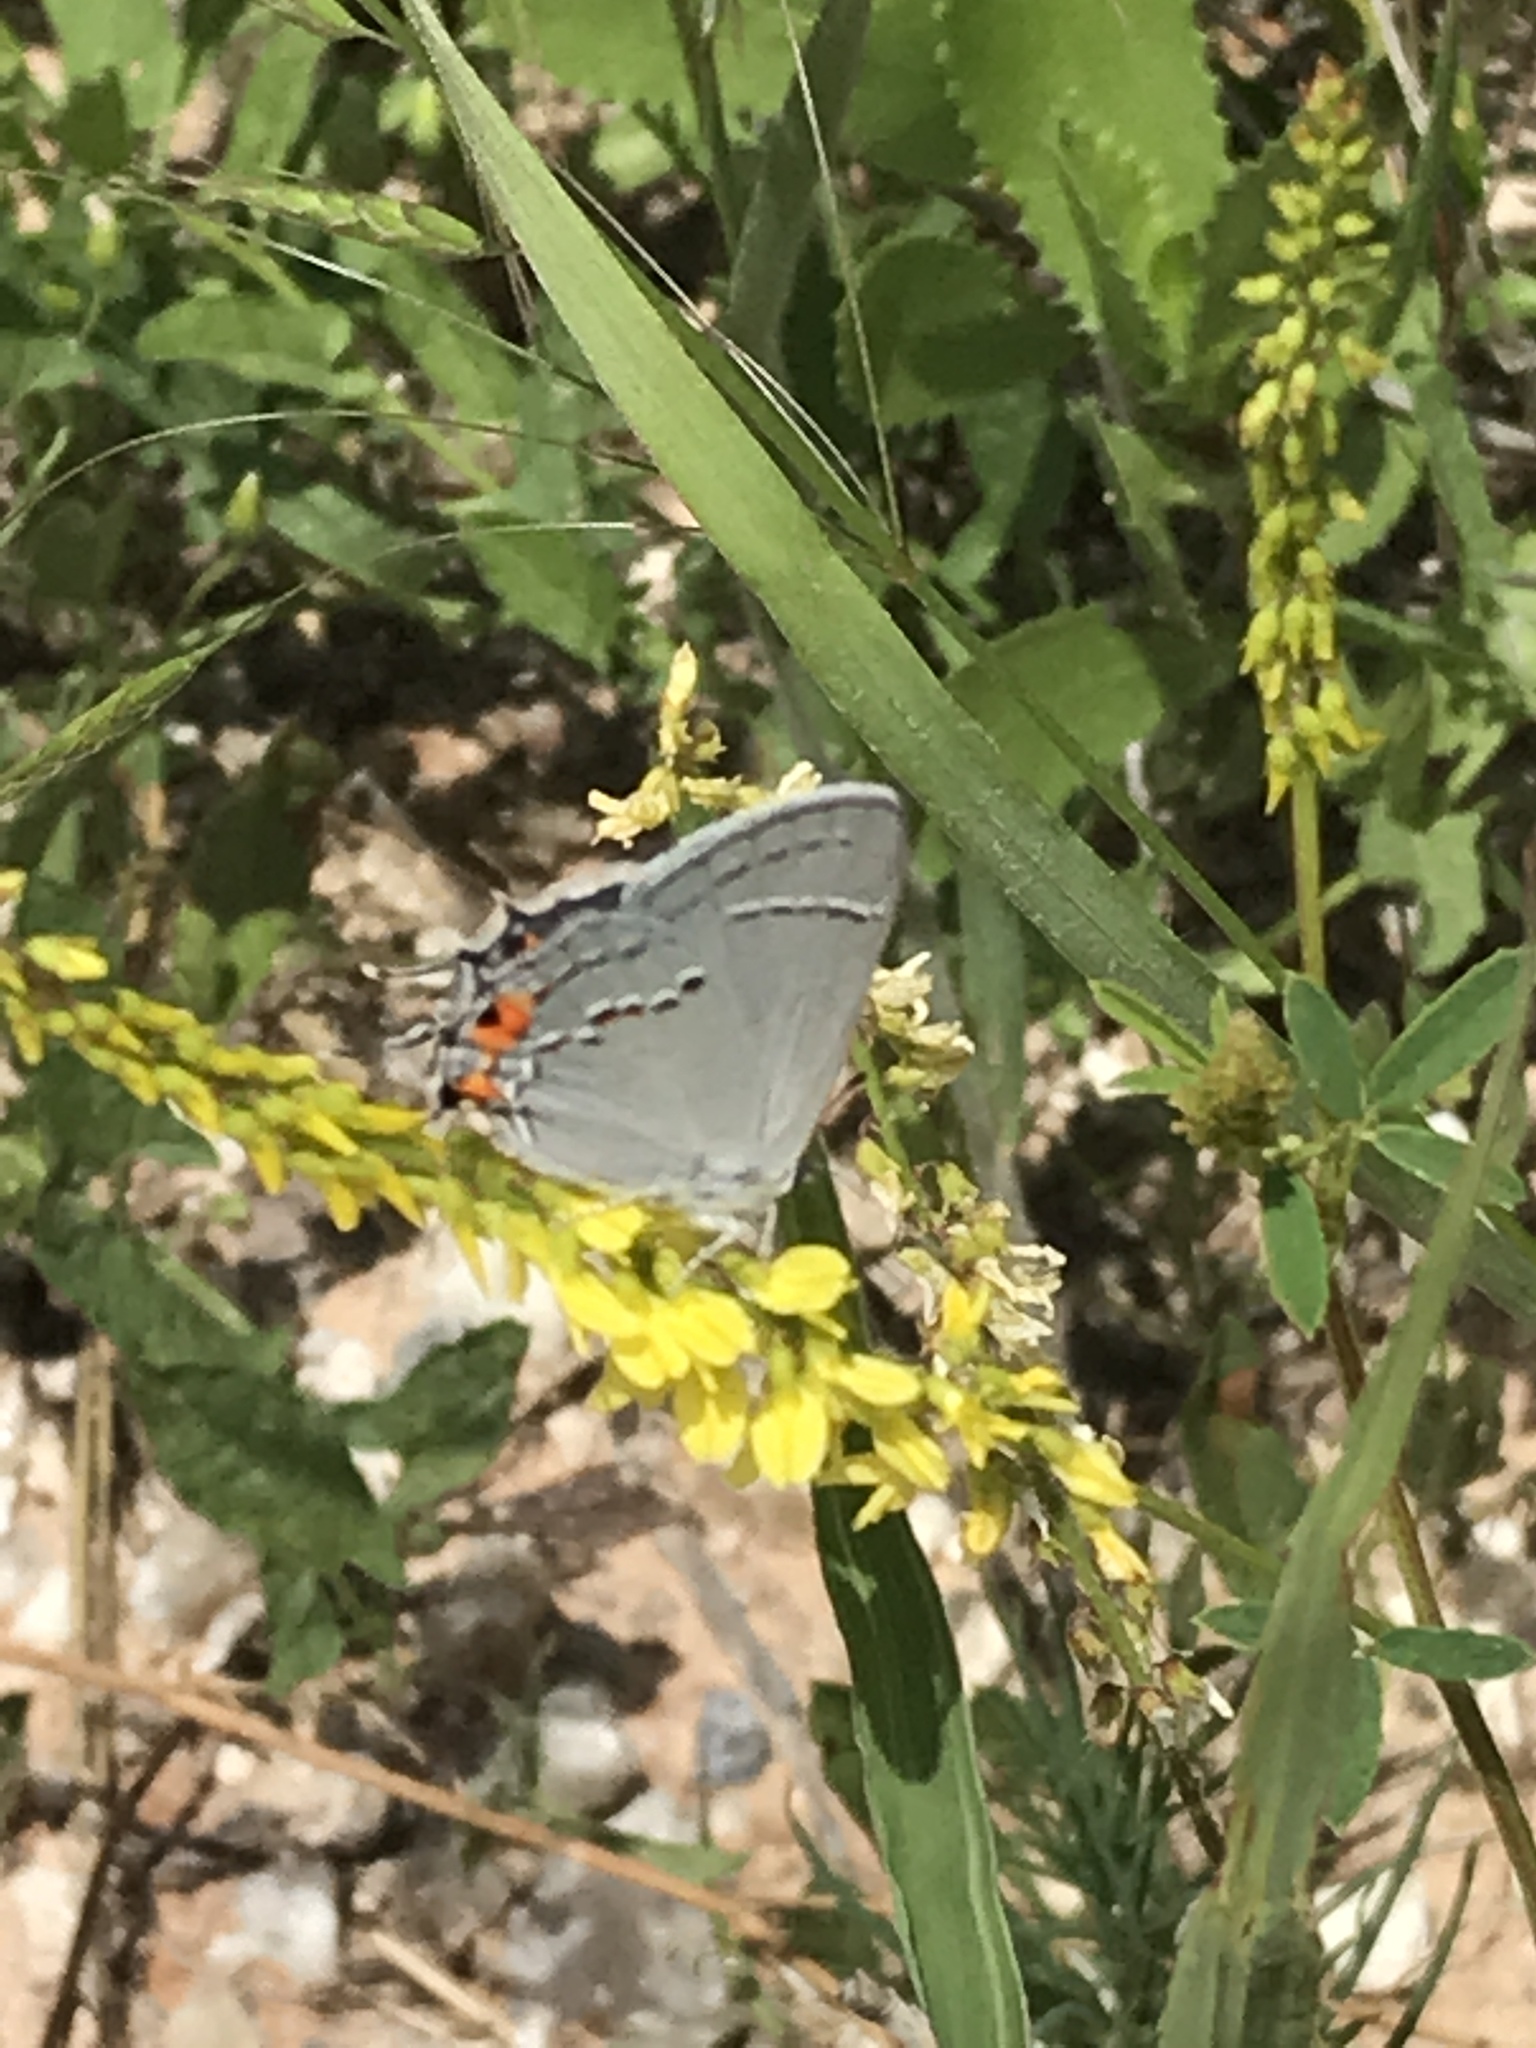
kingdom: Animalia
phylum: Arthropoda
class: Insecta
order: Lepidoptera
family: Lycaenidae
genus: Strymon
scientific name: Strymon melinus
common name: Gray hairstreak
